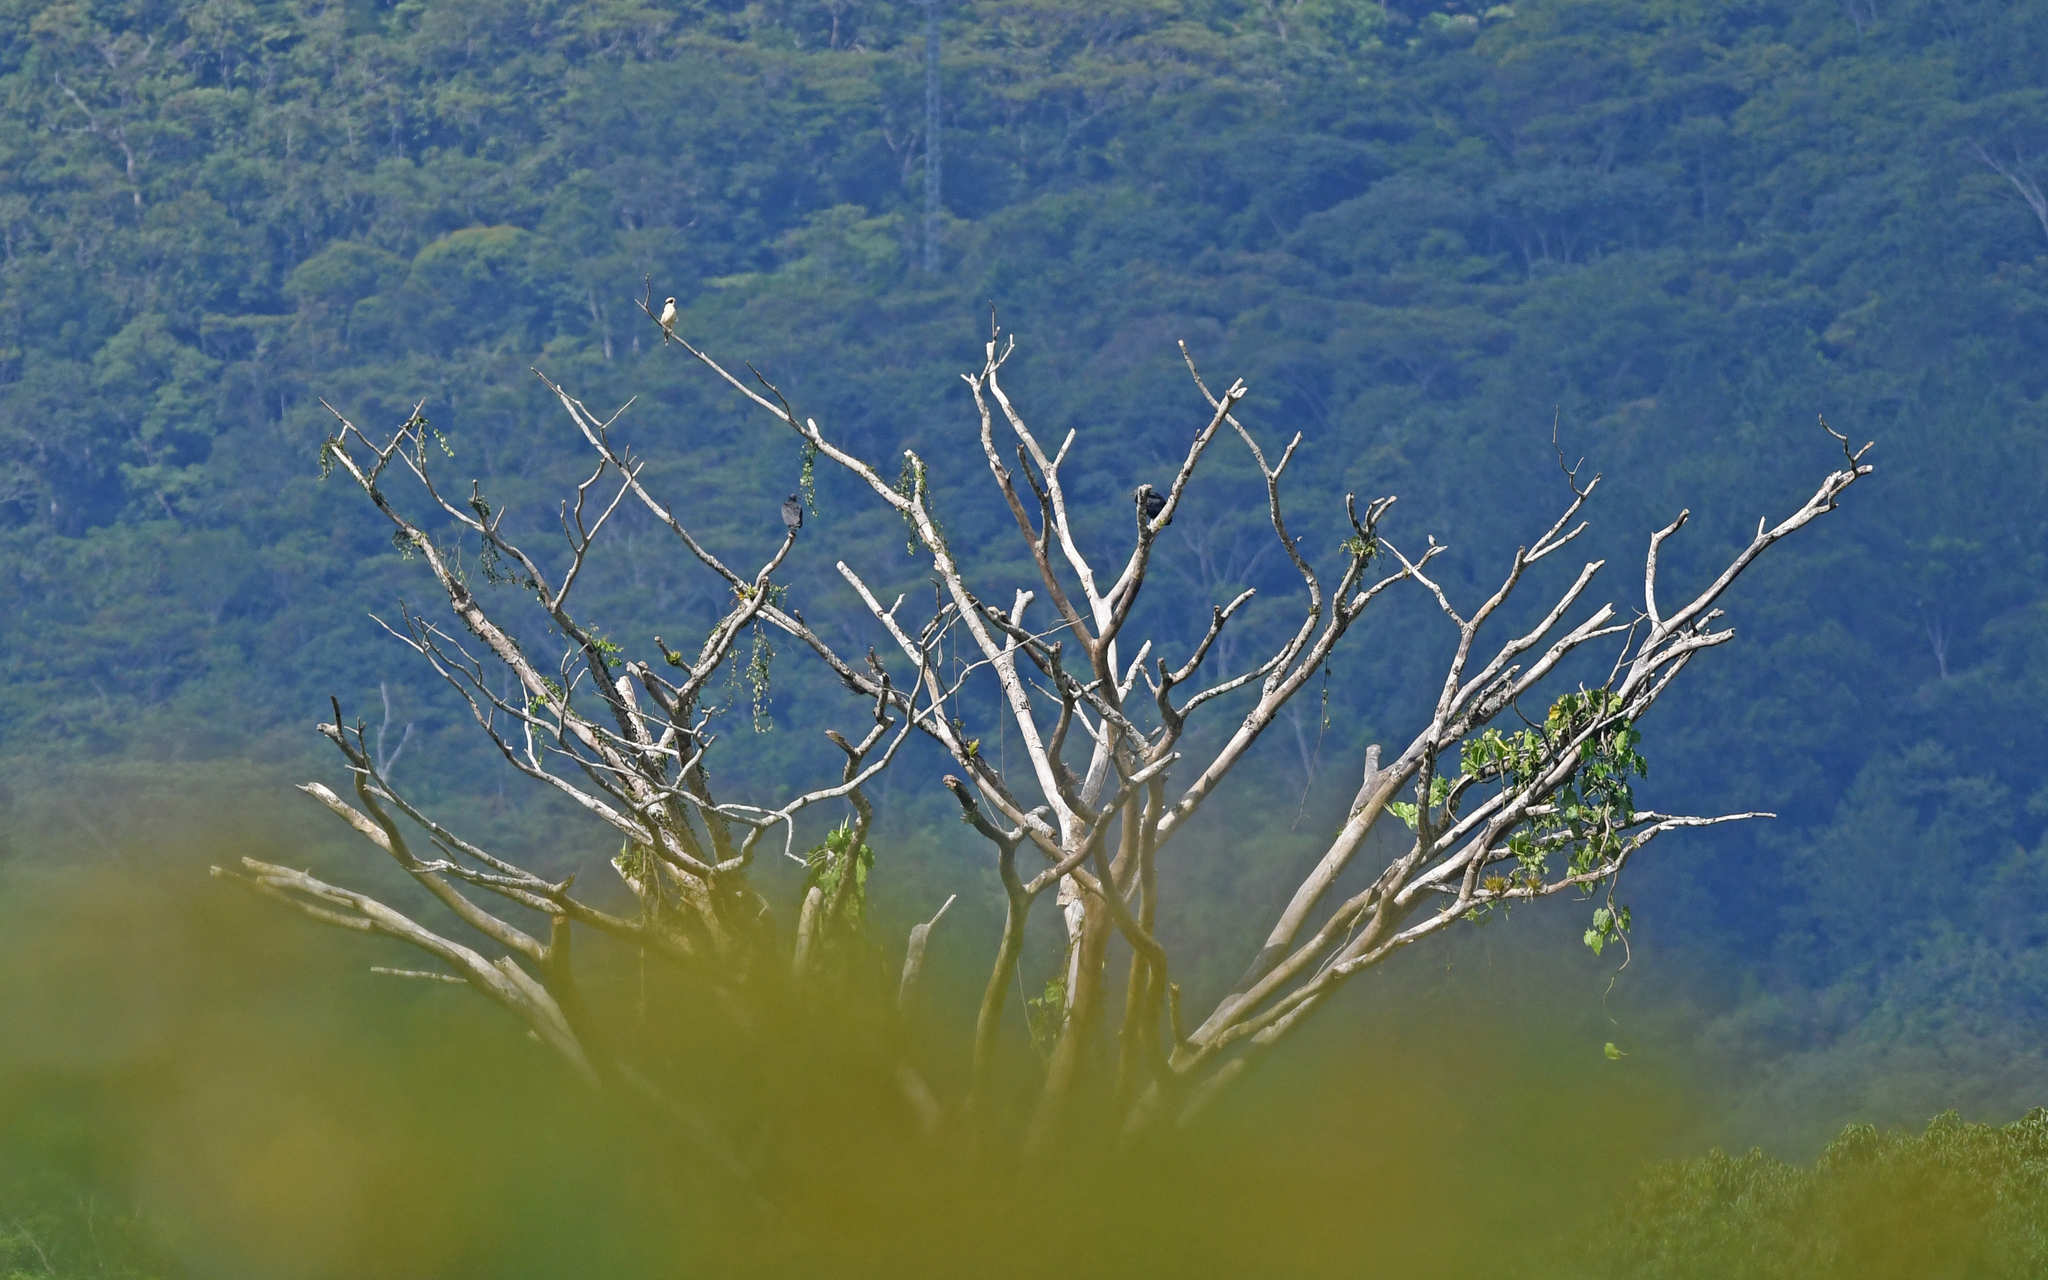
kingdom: Animalia
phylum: Chordata
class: Aves
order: Falconiformes
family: Falconidae
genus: Herpetotheres
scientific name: Herpetotheres cachinnans
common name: Laughing falcon
